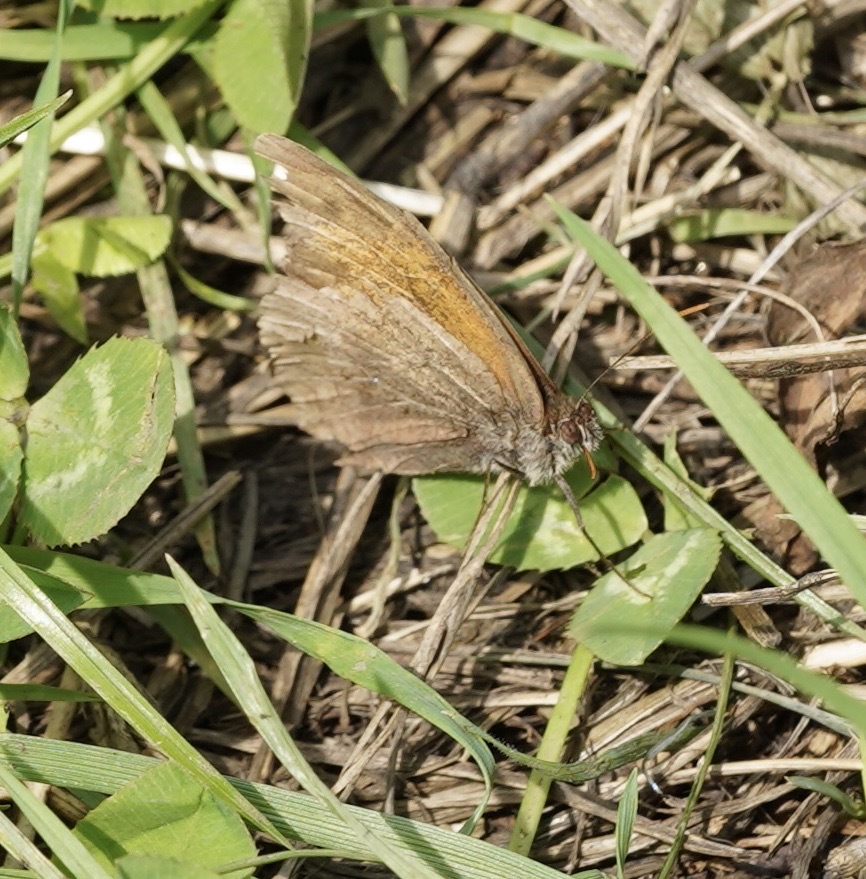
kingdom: Animalia
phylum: Arthropoda
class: Insecta
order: Lepidoptera
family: Nymphalidae
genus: Maniola
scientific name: Maniola jurtina
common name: Meadow brown
